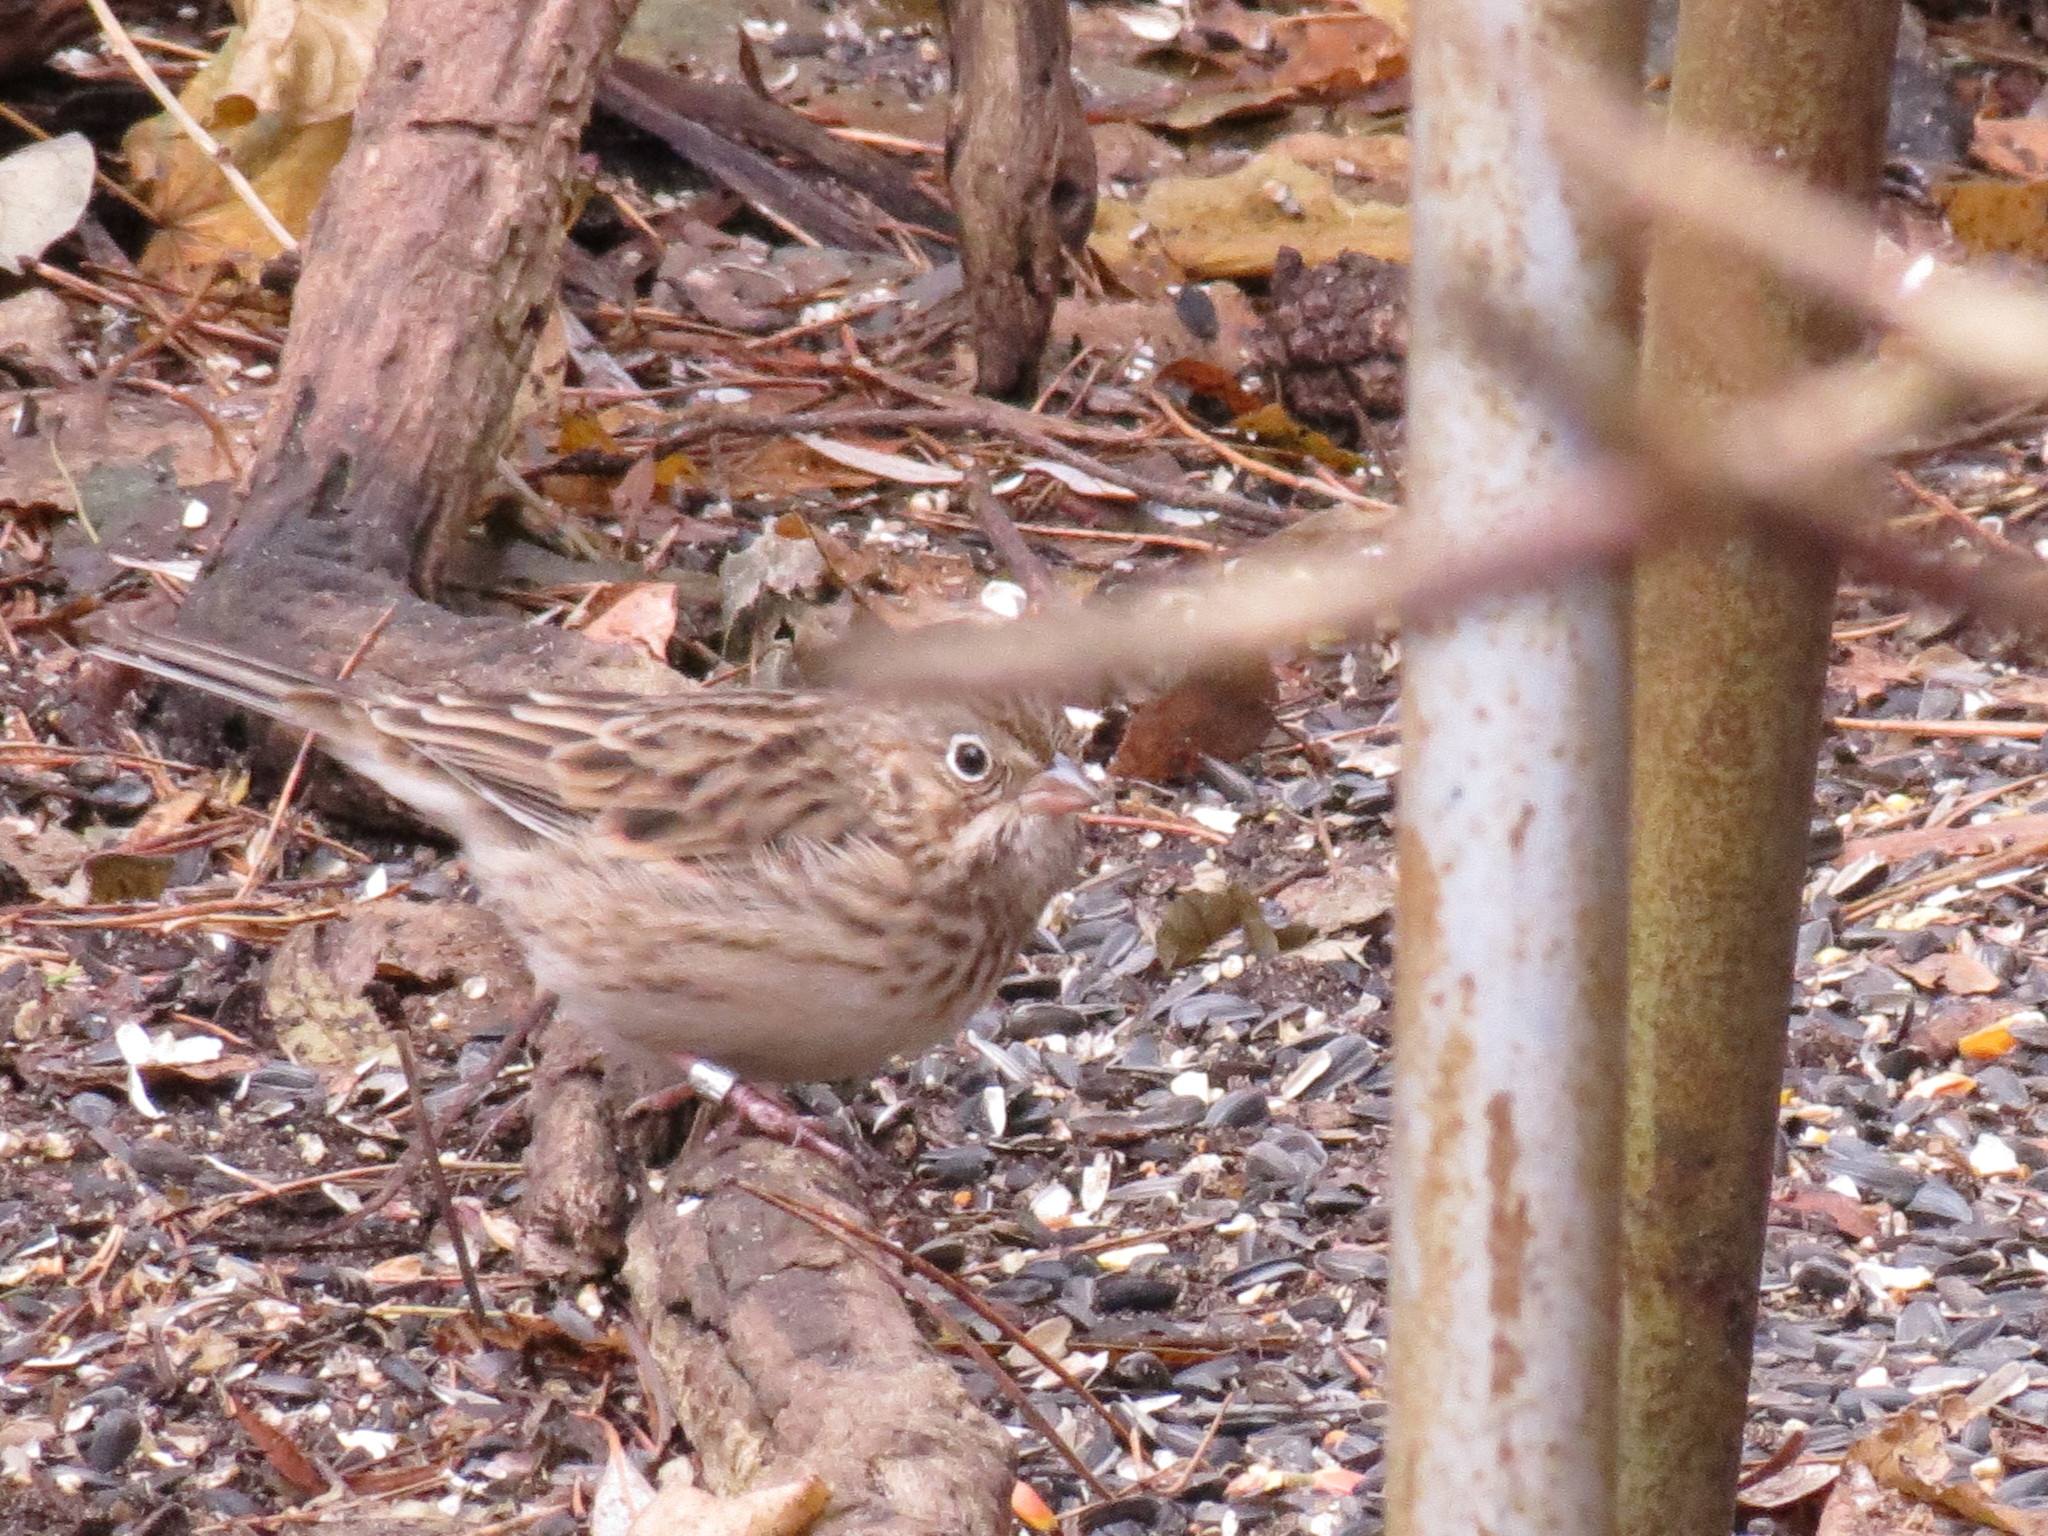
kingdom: Animalia
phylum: Chordata
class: Aves
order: Passeriformes
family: Passerellidae
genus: Pooecetes
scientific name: Pooecetes gramineus
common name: Vesper sparrow
